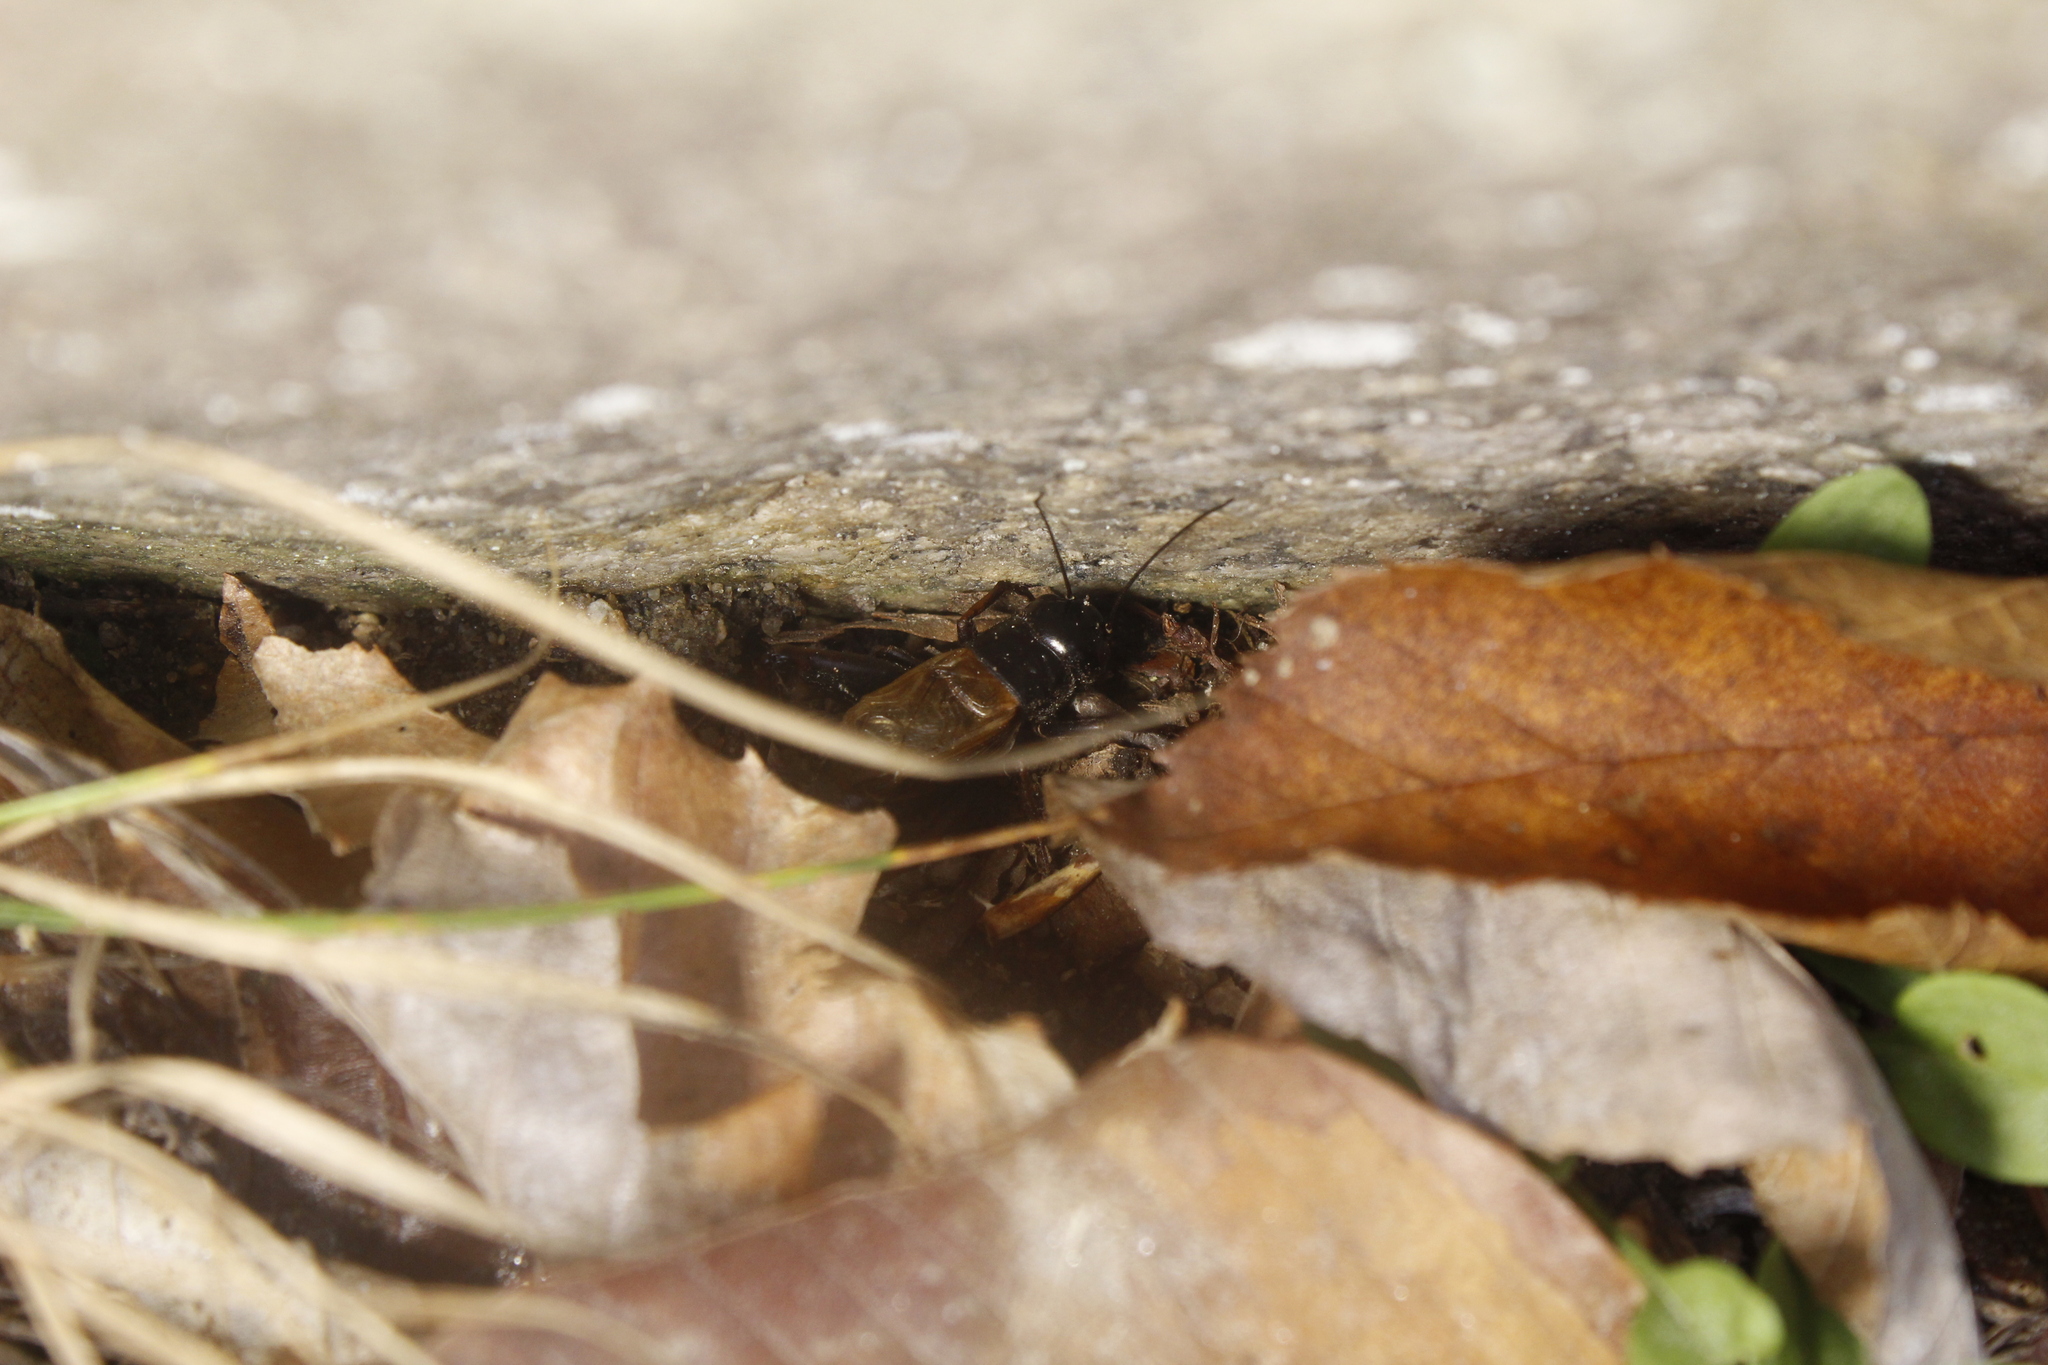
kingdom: Animalia
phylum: Arthropoda
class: Insecta
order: Orthoptera
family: Gryllidae
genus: Gryllus
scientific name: Gryllus pennsylvanicus
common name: Fall field cricket
